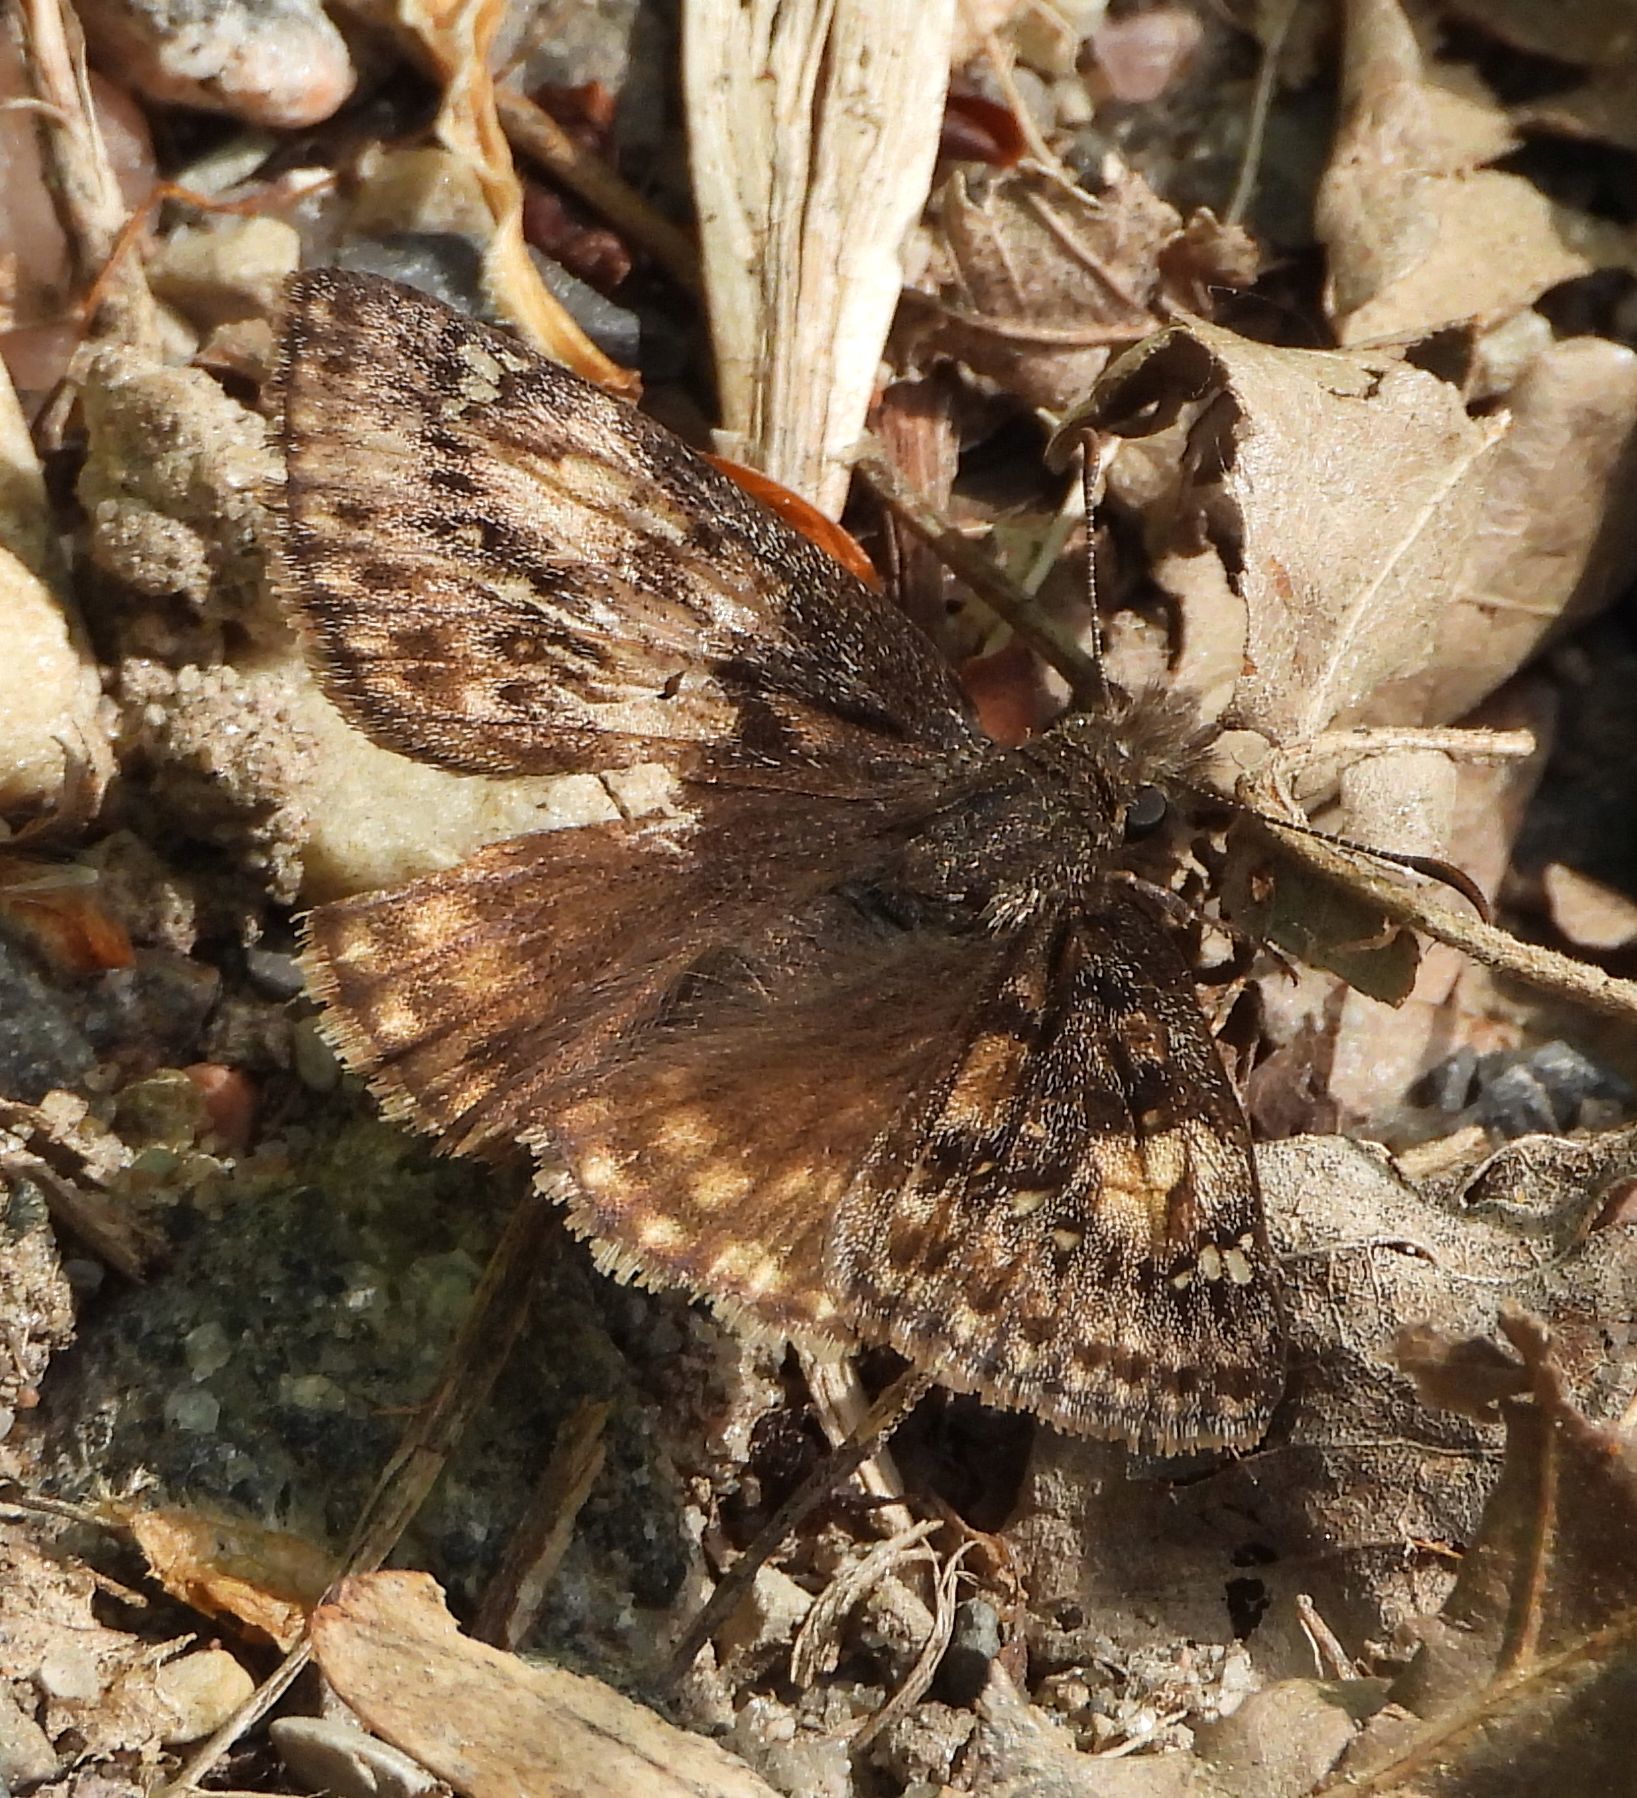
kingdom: Animalia
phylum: Arthropoda
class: Insecta
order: Lepidoptera
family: Hesperiidae
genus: Erynnis
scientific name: Erynnis juvenalis
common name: Juvenal's duskywing
